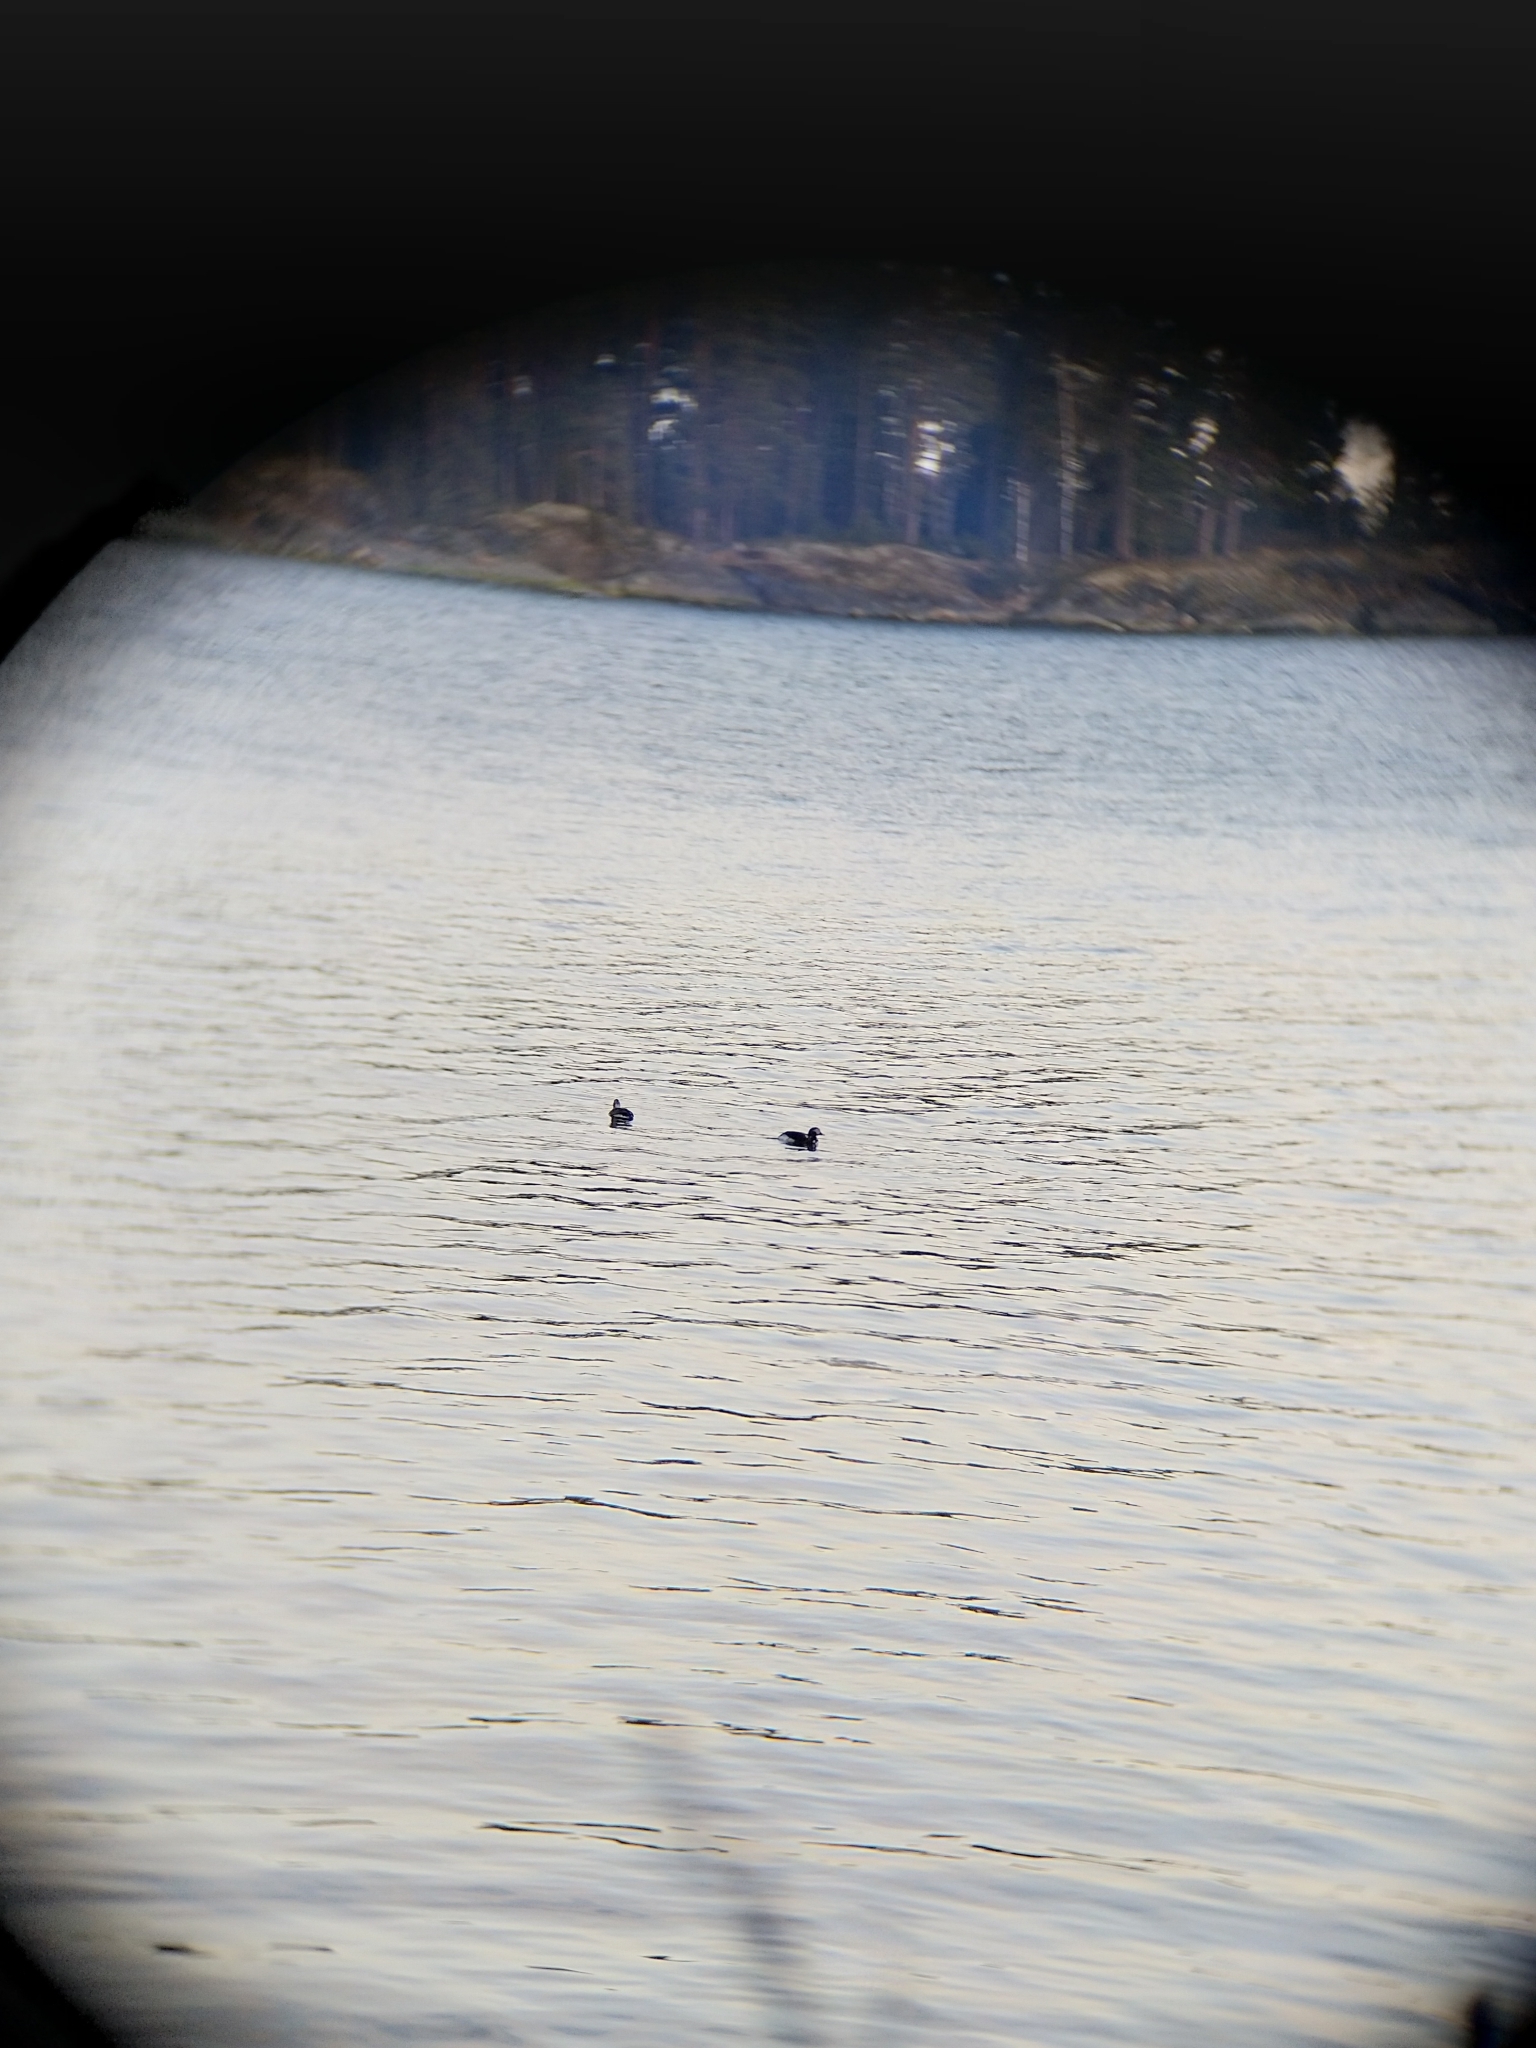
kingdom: Animalia
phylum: Chordata
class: Aves
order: Anseriformes
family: Anatidae
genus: Clangula
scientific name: Clangula hyemalis
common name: Long-tailed duck
